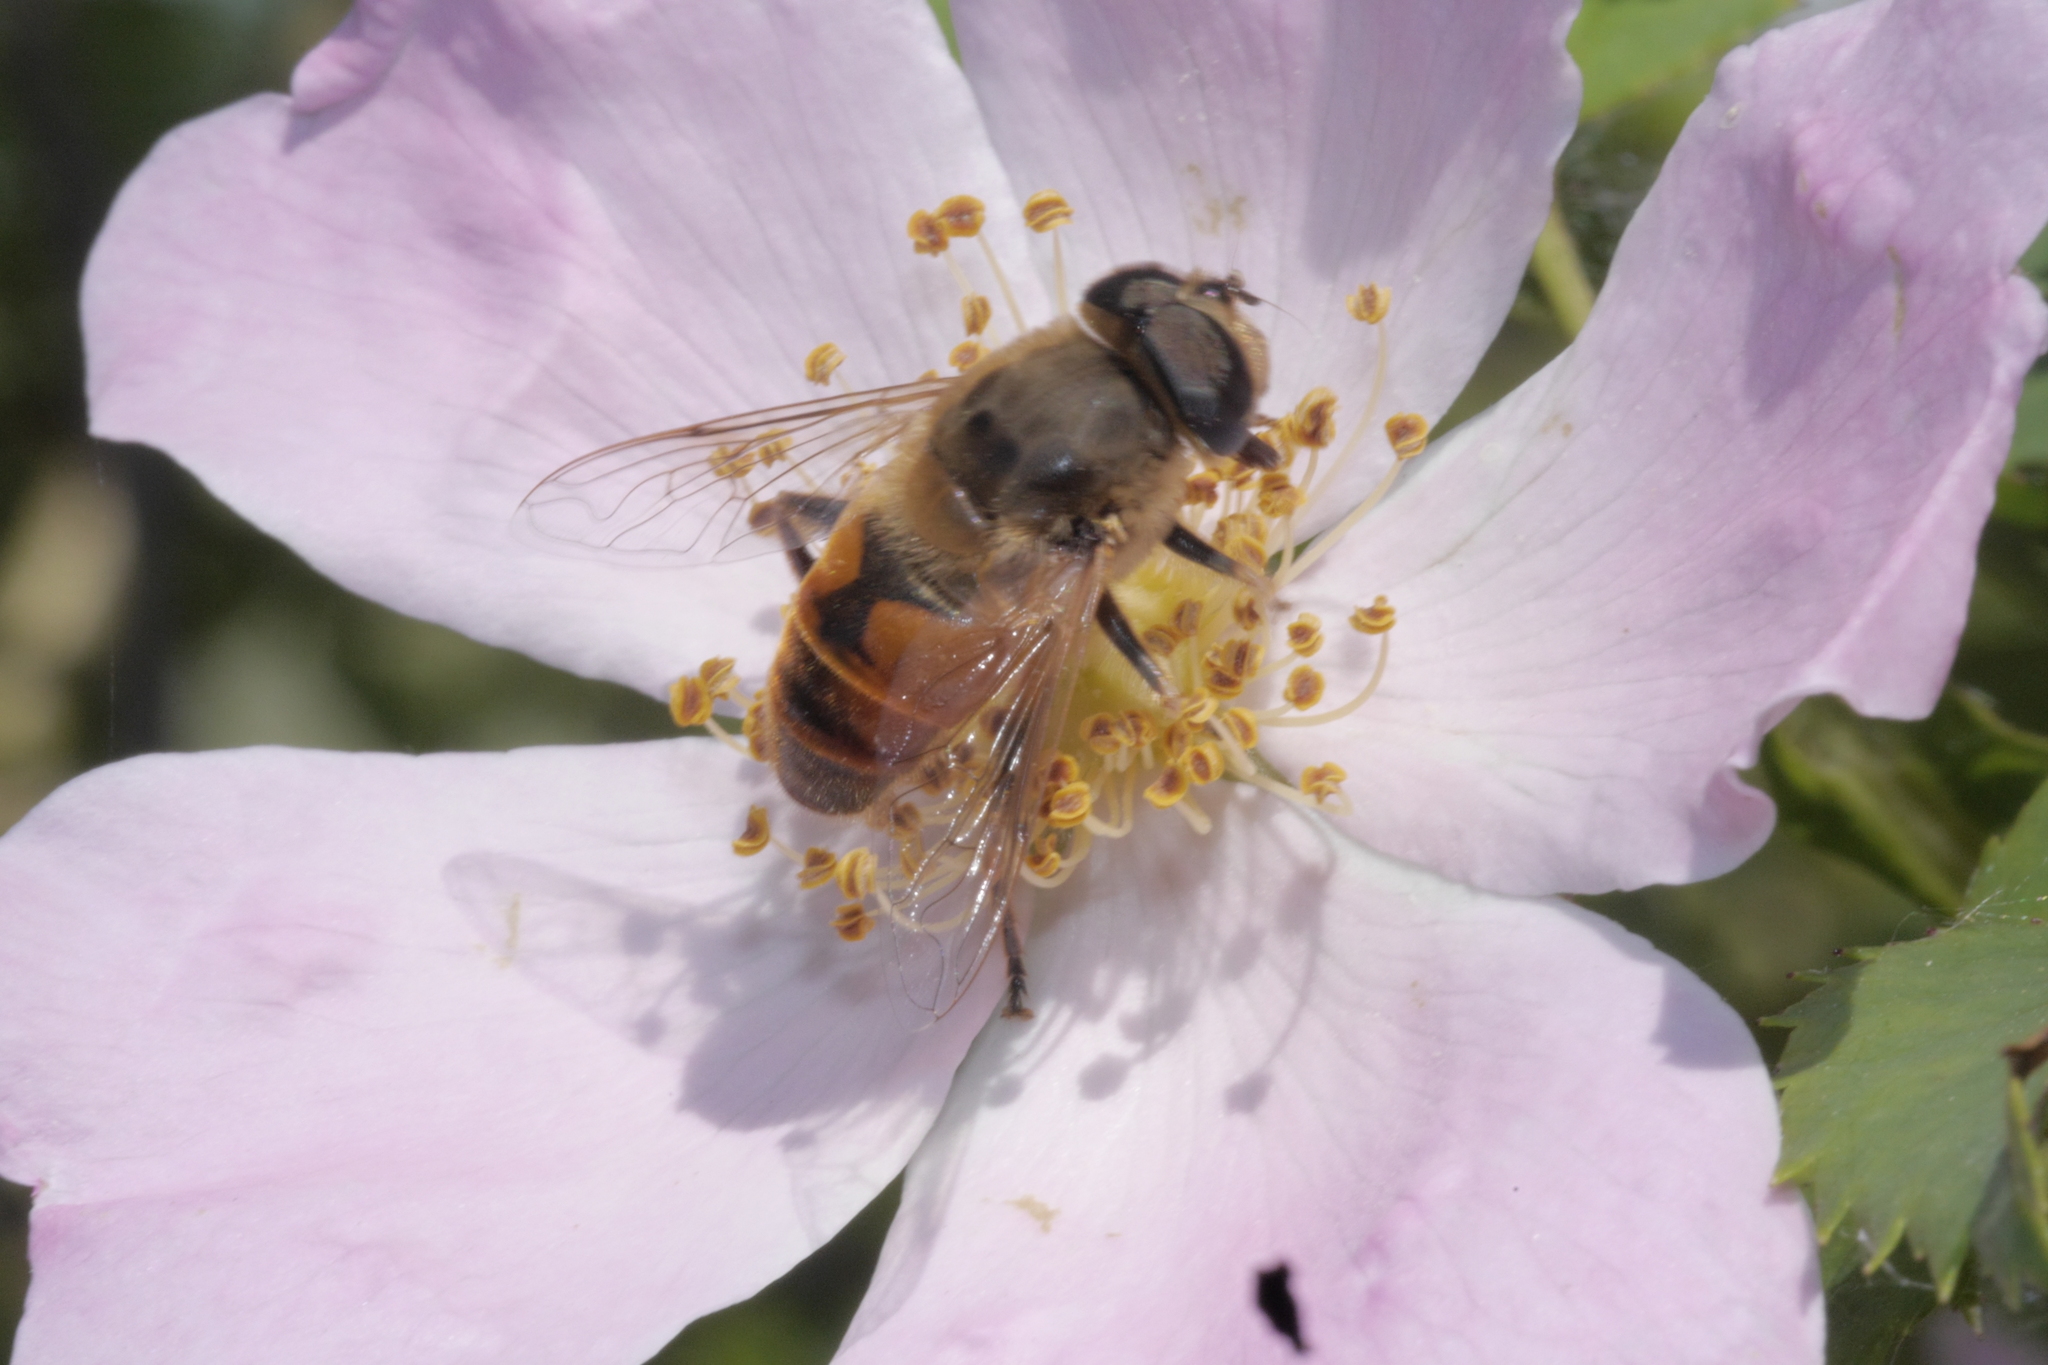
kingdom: Animalia
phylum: Arthropoda
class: Insecta
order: Diptera
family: Syrphidae
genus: Eristalis
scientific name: Eristalis tenax
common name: Drone fly
